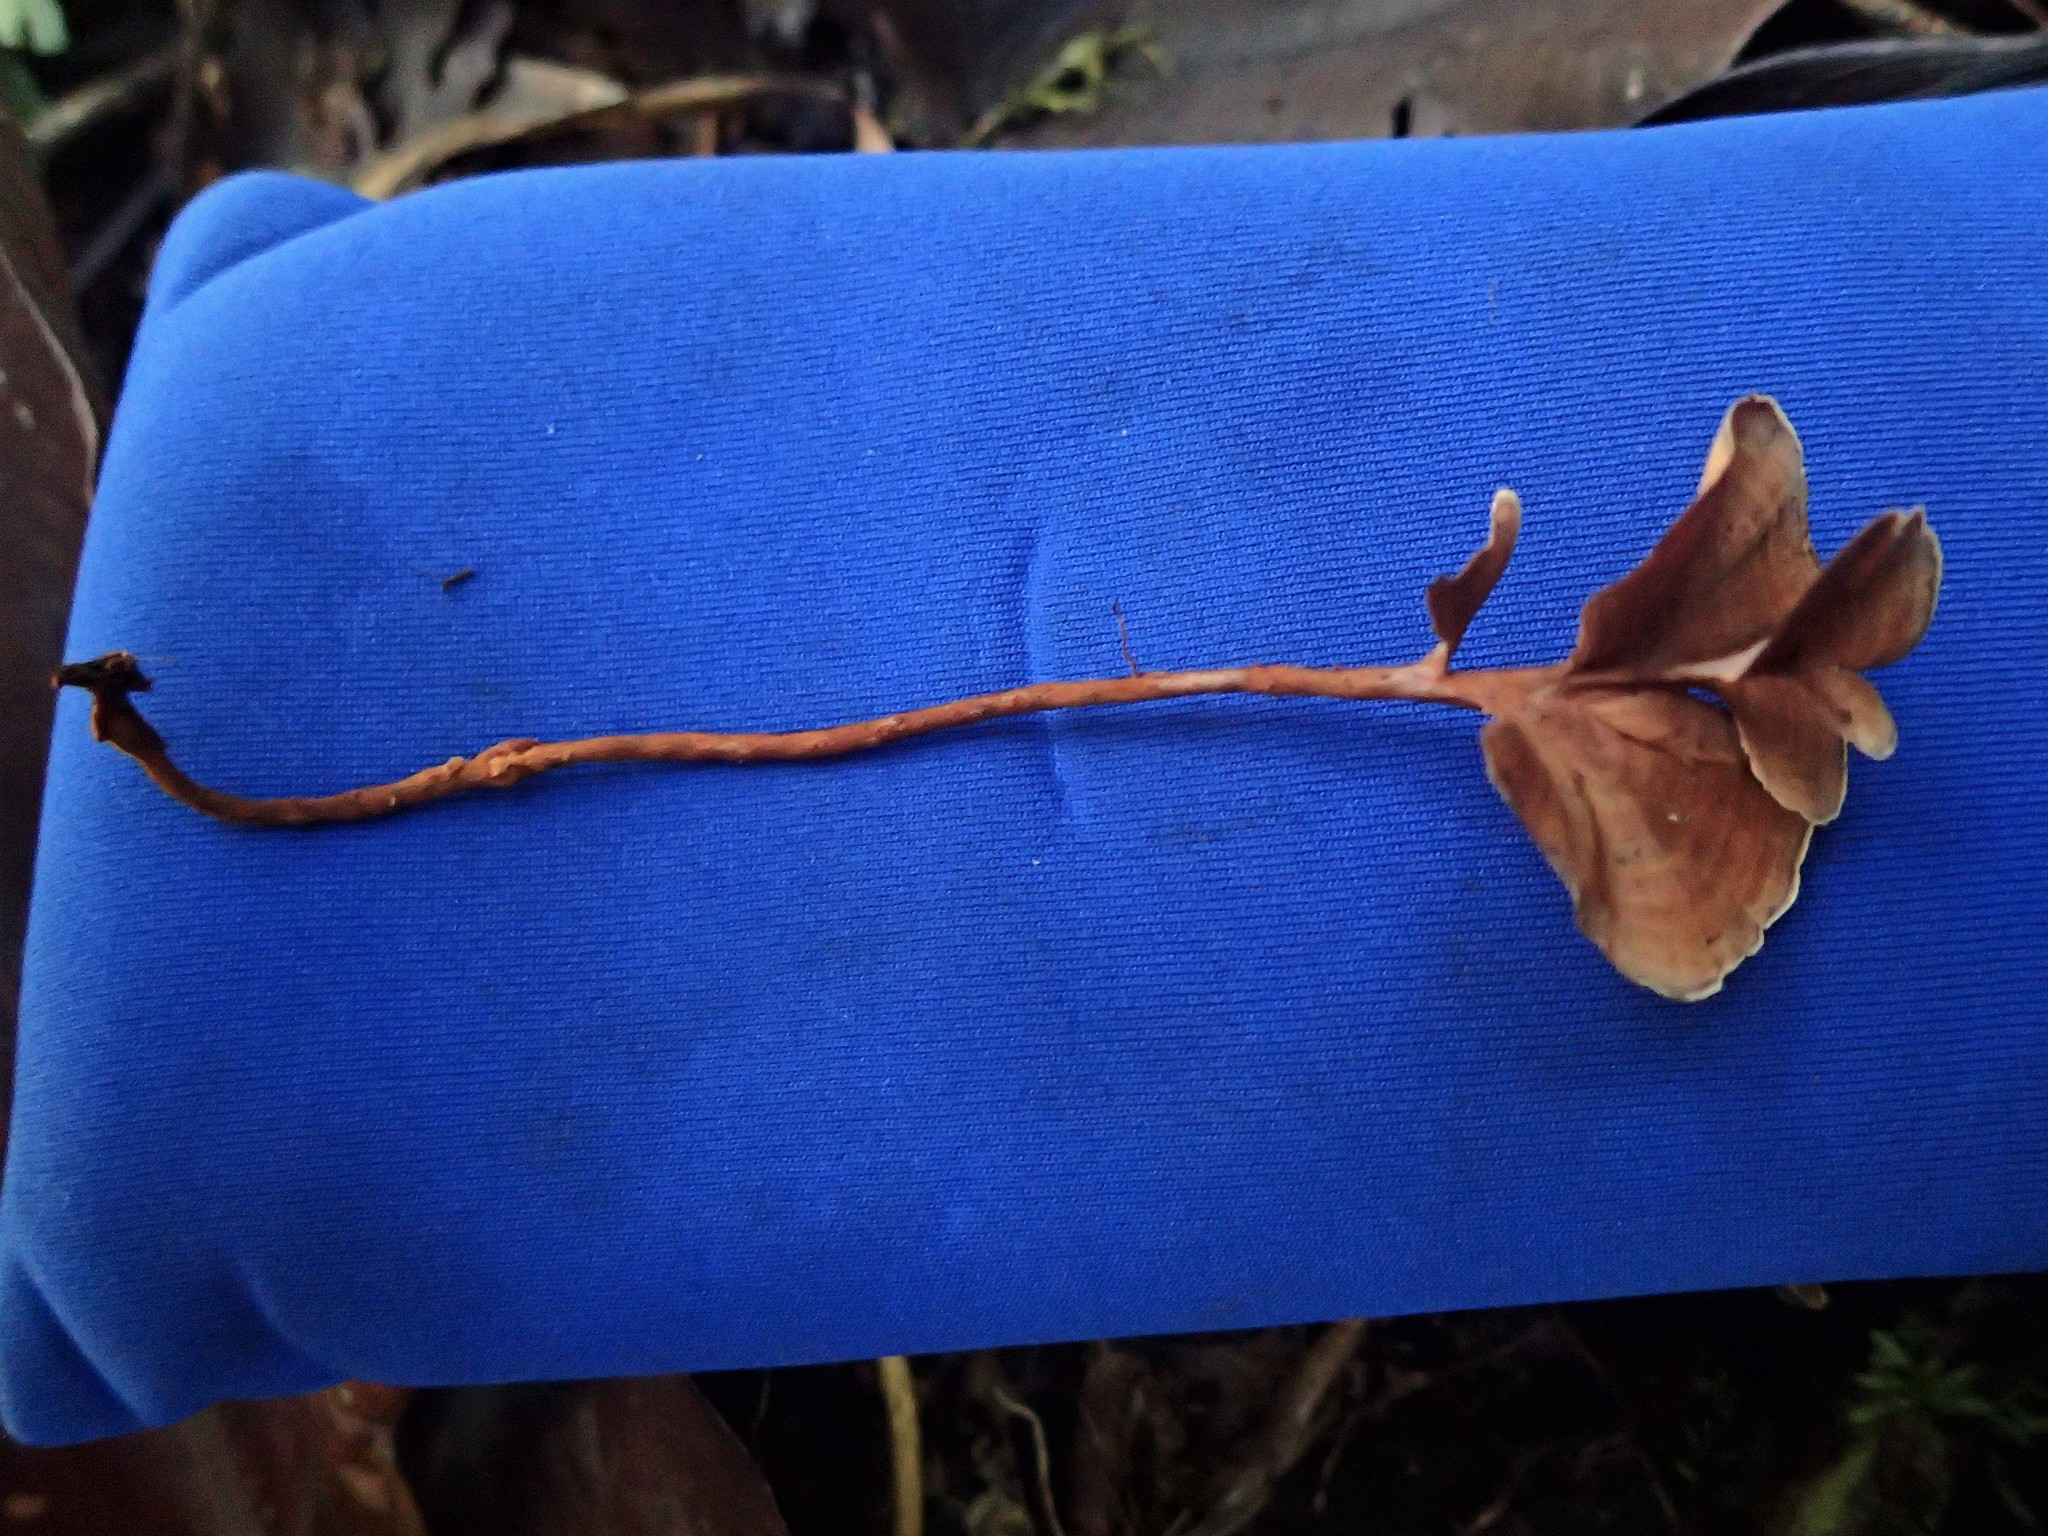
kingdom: Fungi
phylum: Basidiomycota
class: Agaricomycetes
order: Hymenochaetales
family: Hymenochaetaceae
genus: Hymenochaete
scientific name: Hymenochaete damicornis
